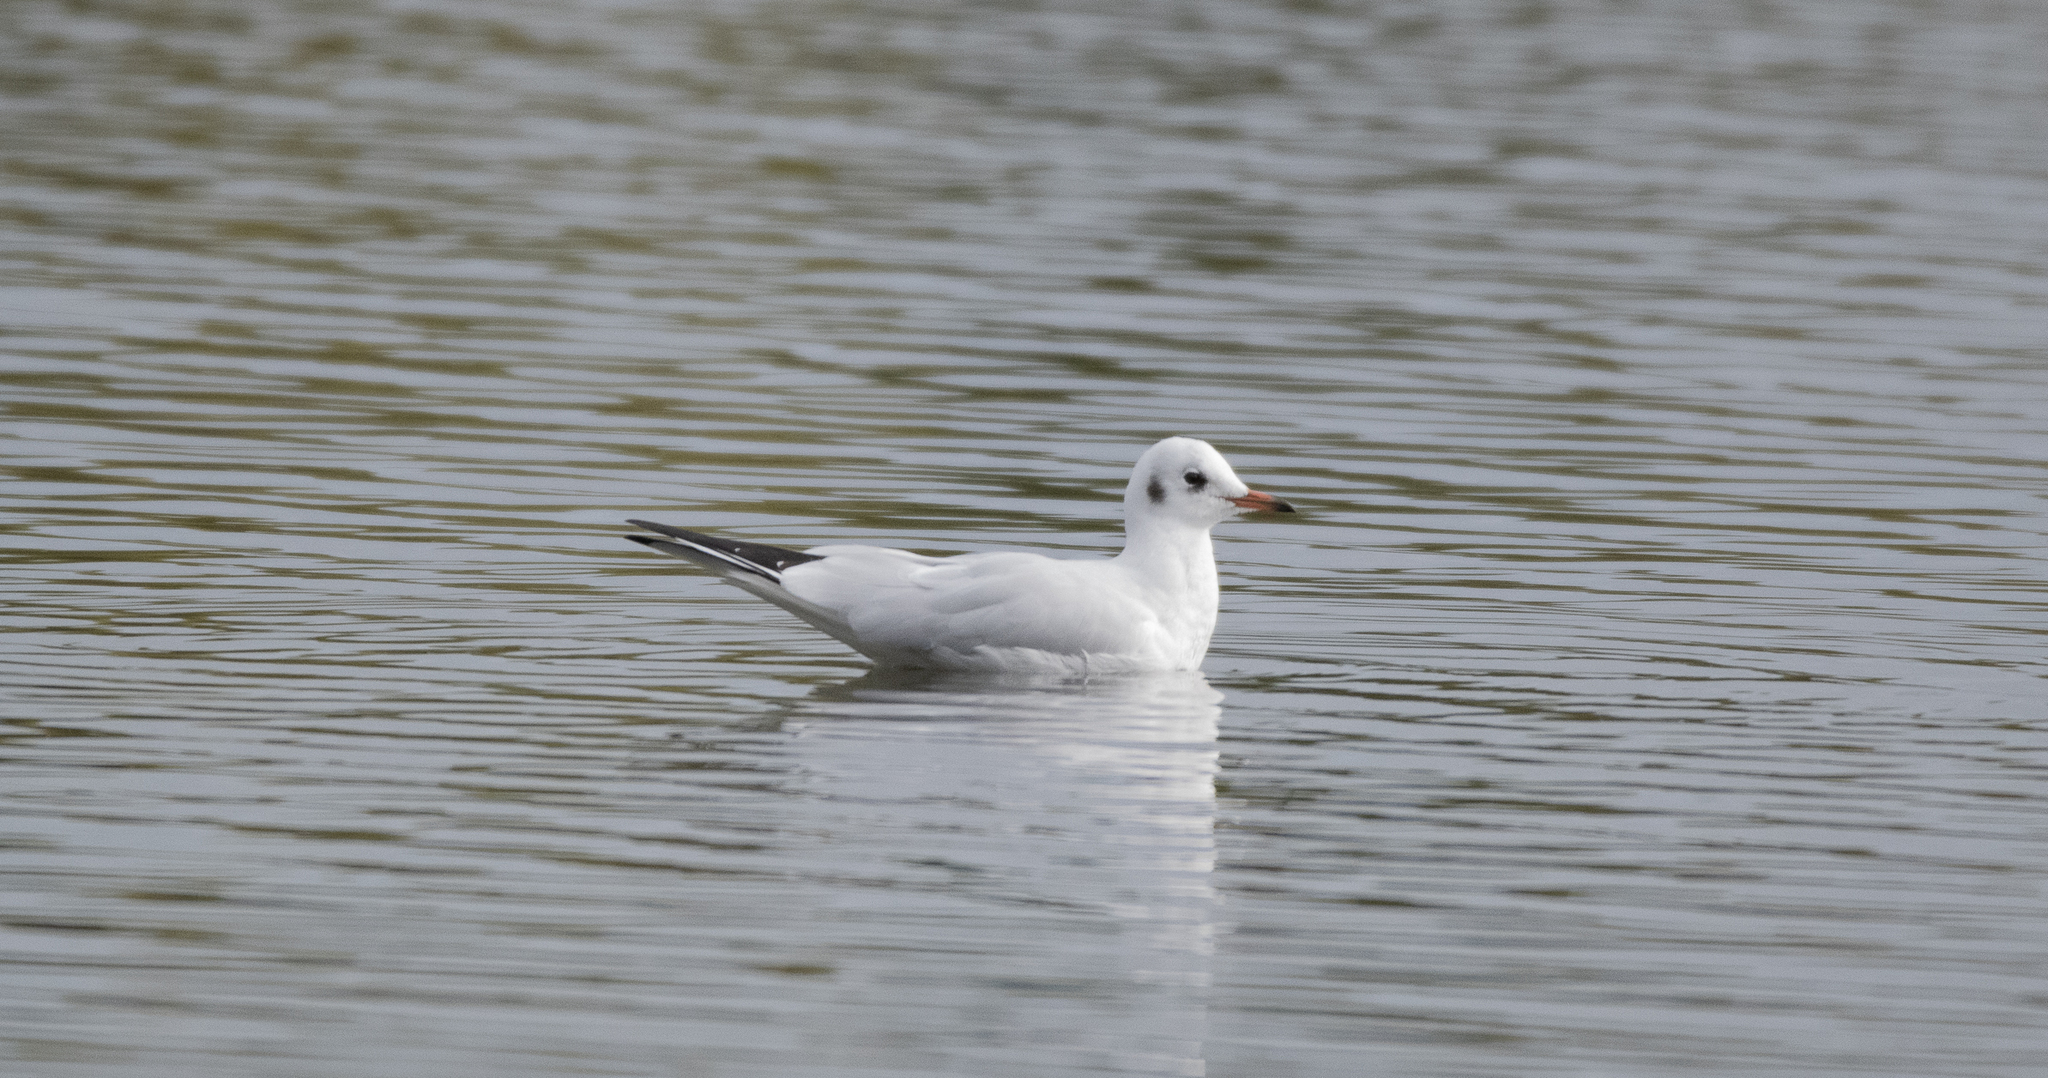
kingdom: Animalia
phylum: Chordata
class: Aves
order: Charadriiformes
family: Laridae
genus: Chroicocephalus
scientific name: Chroicocephalus ridibundus
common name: Black-headed gull
